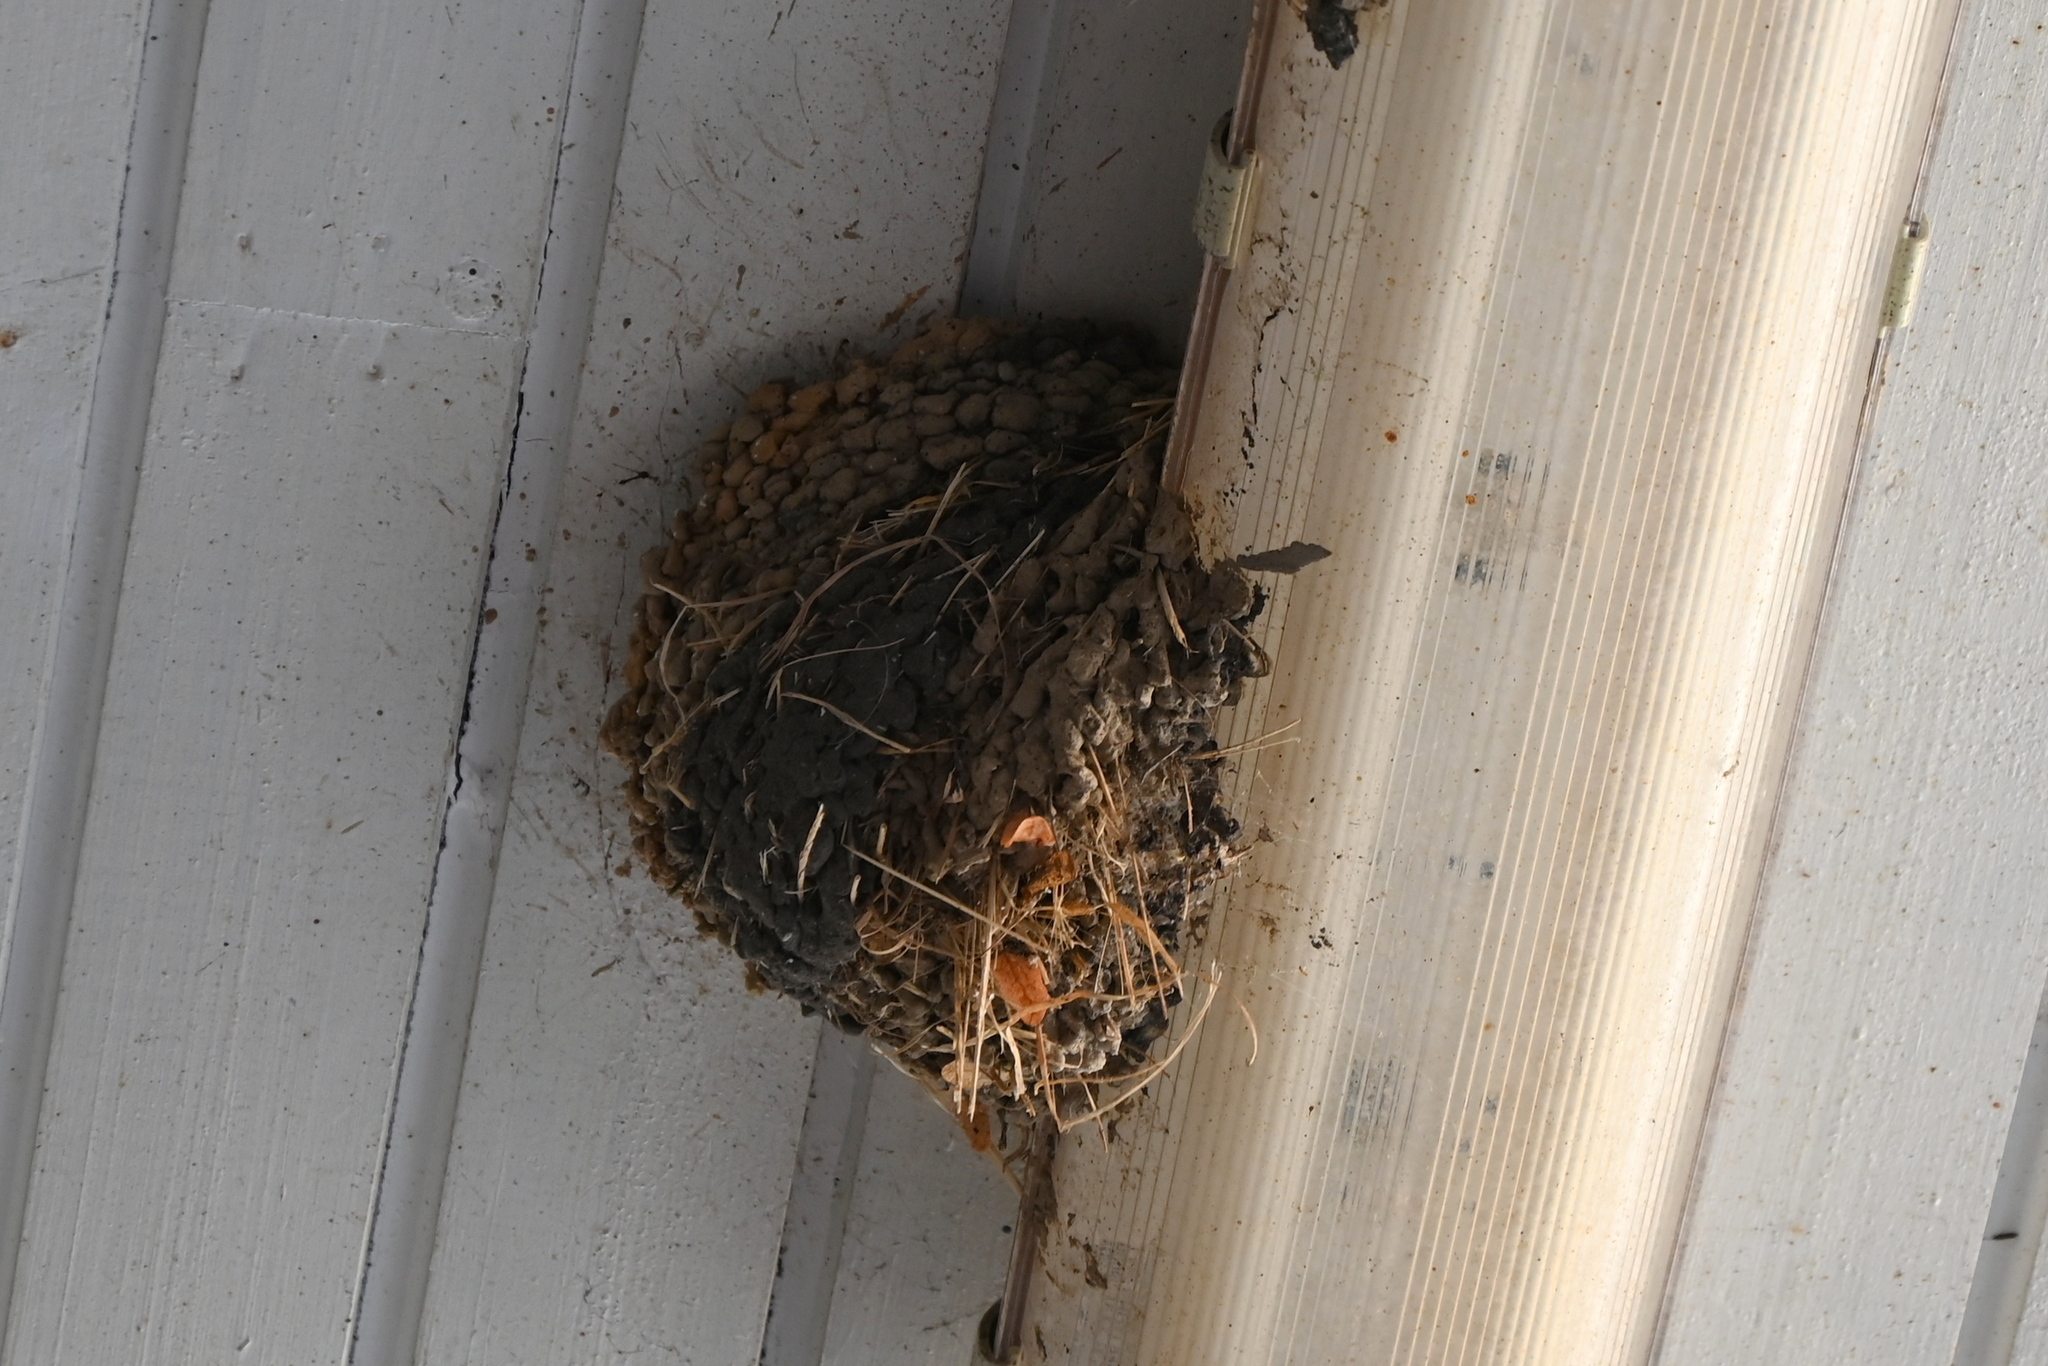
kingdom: Animalia
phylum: Chordata
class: Aves
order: Passeriformes
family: Hirundinidae
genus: Delichon
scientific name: Delichon urbicum
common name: Common house martin
